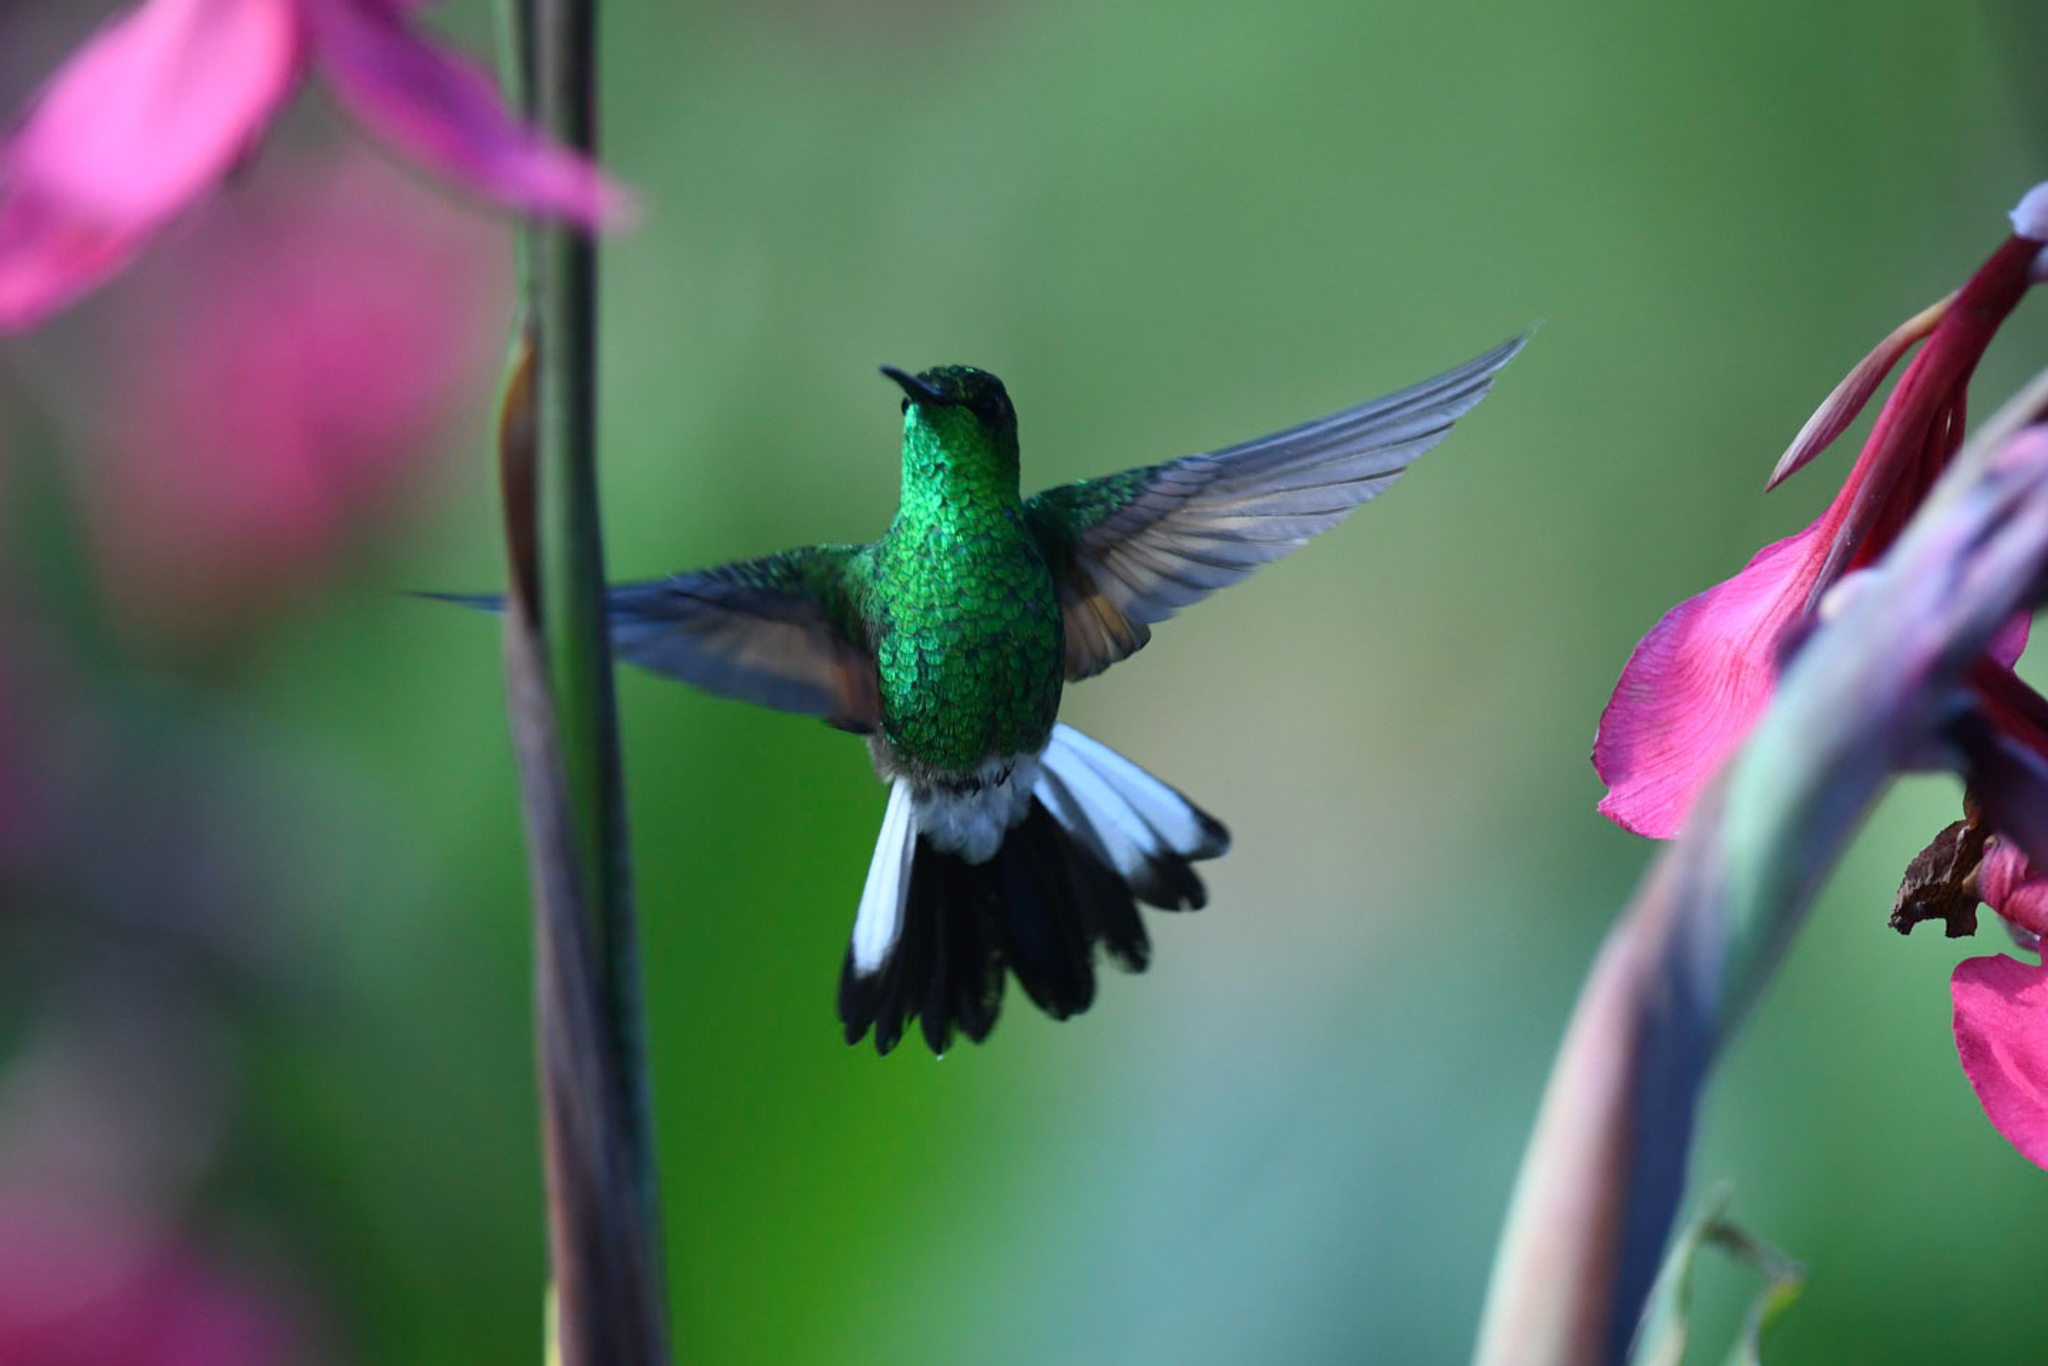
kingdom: Animalia
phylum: Chordata
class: Aves
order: Apodiformes
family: Trochilidae
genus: Eupherusa
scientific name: Eupherusa eximia
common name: Stripe-tailed hummingbird
